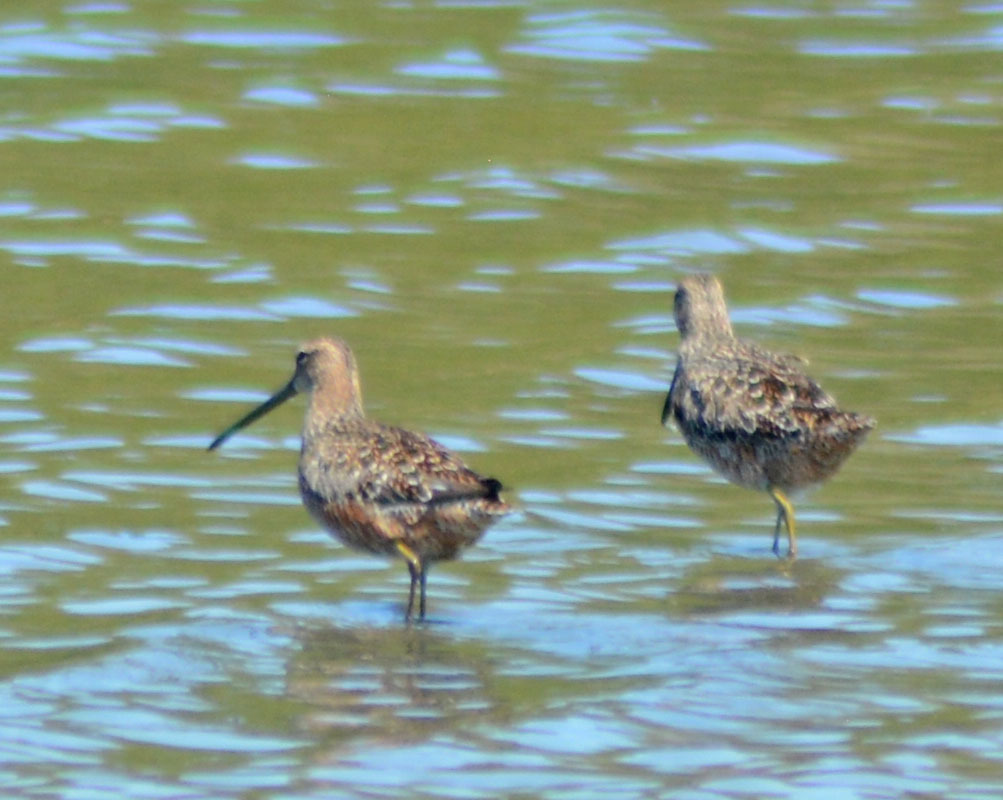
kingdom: Animalia
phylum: Chordata
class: Aves
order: Charadriiformes
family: Scolopacidae
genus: Limnodromus
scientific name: Limnodromus scolopaceus
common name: Long-billed dowitcher
